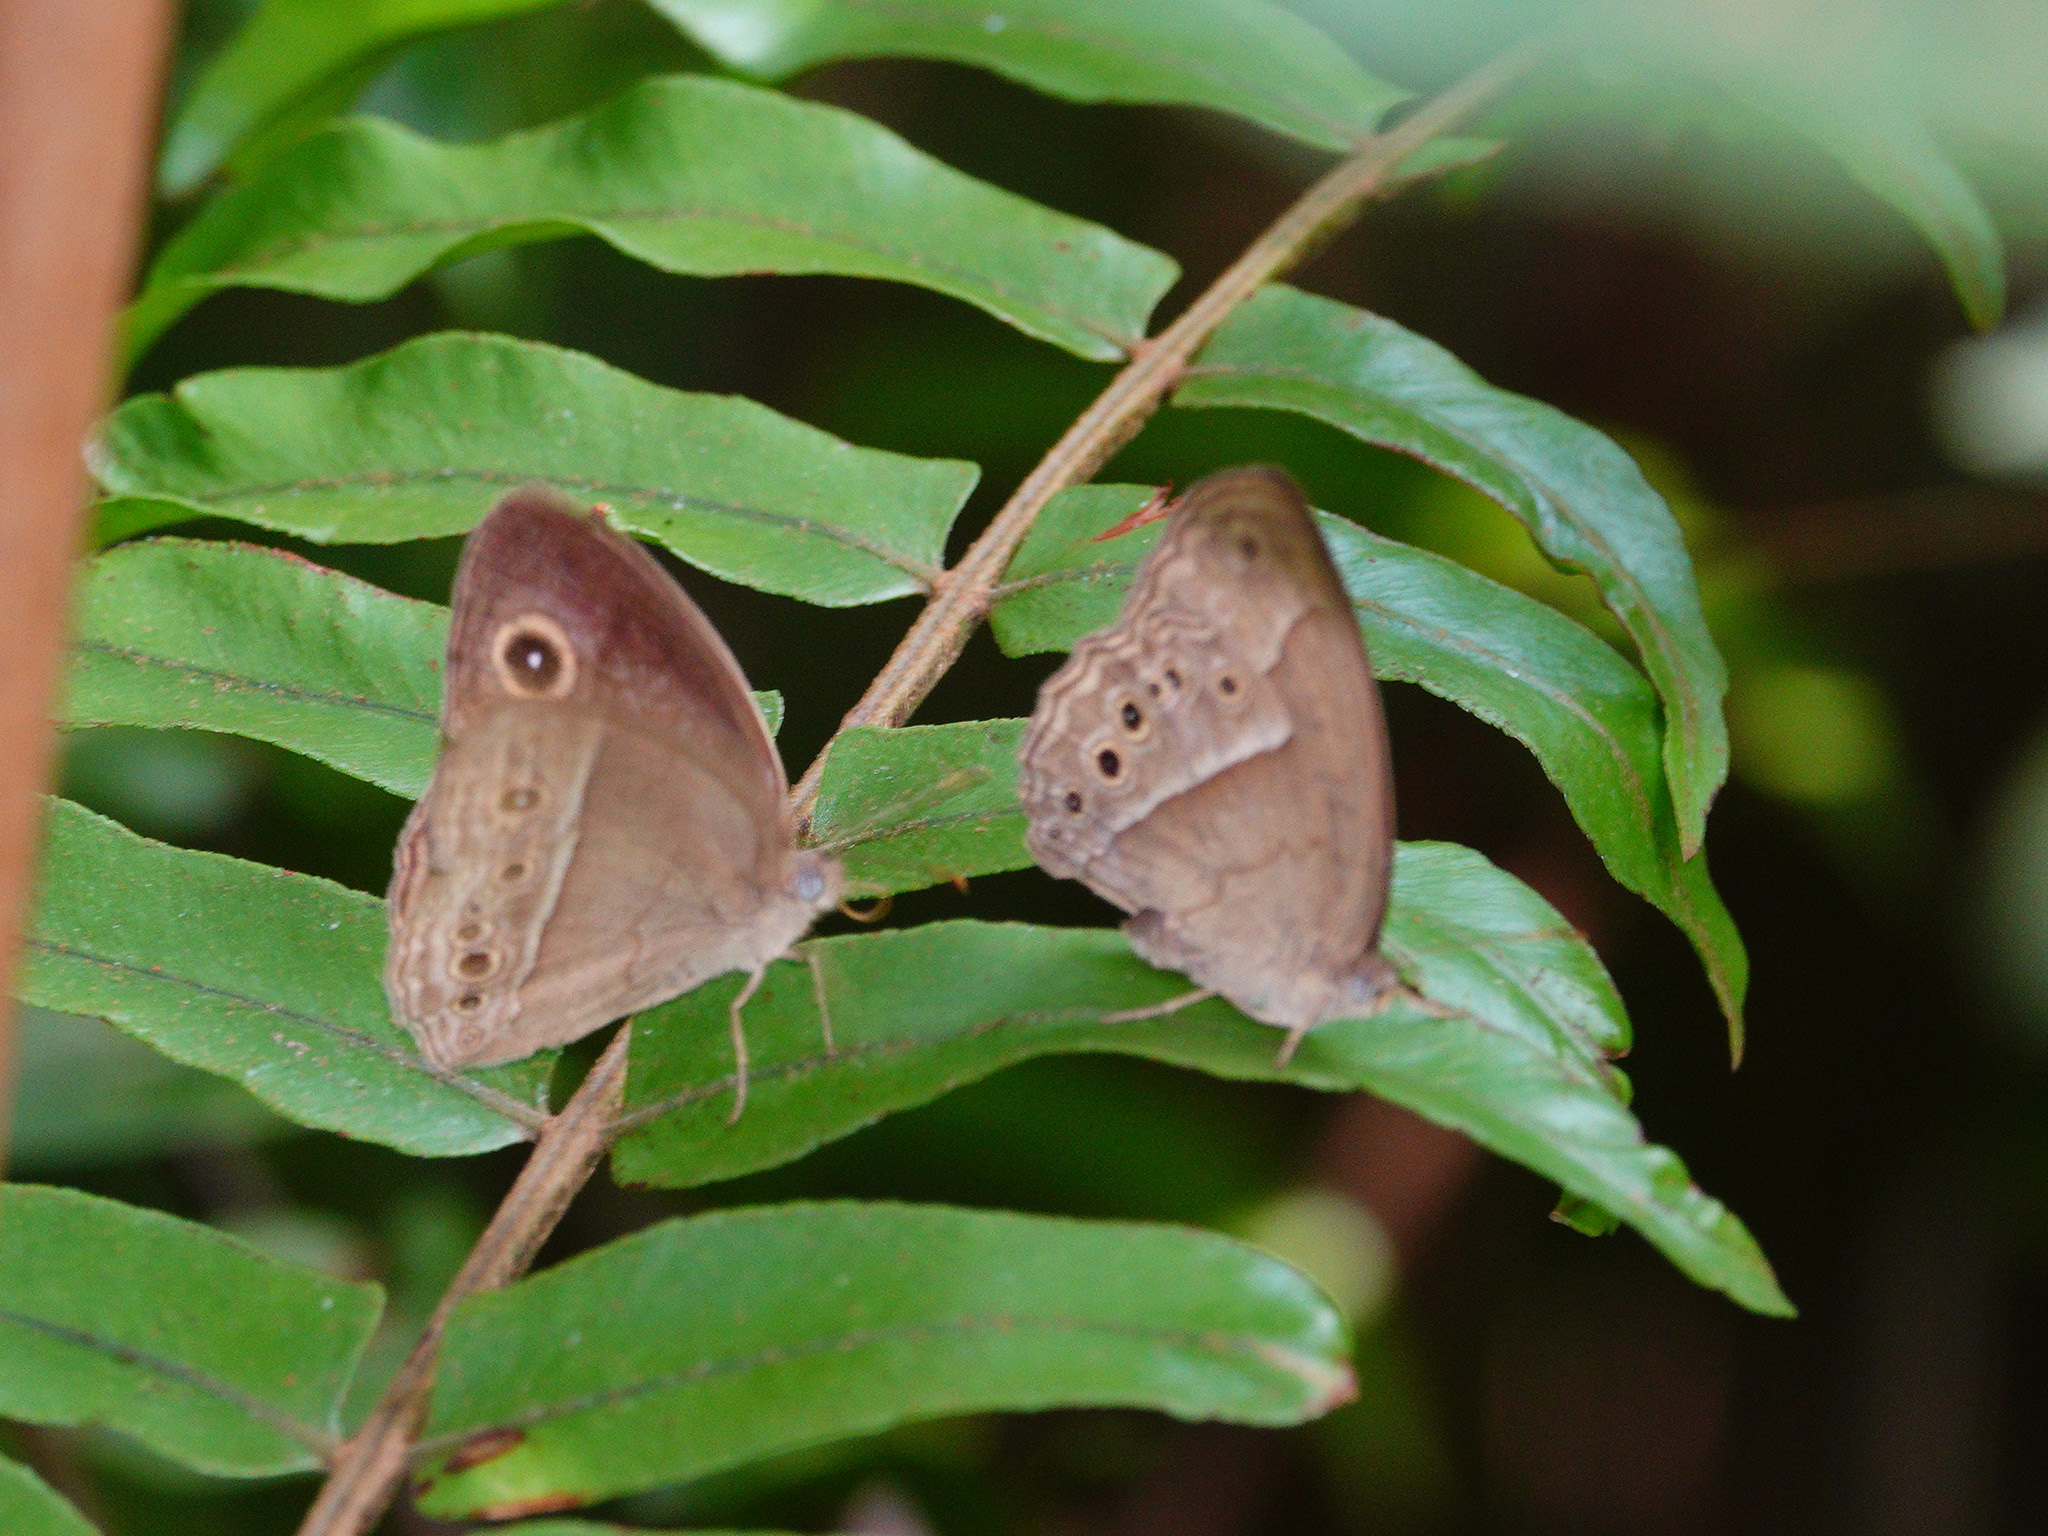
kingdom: Animalia
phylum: Arthropoda
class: Insecta
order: Lepidoptera
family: Nymphalidae
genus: Mycalesis
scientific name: Mycalesis perseoides
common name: Burmese bushbrown
